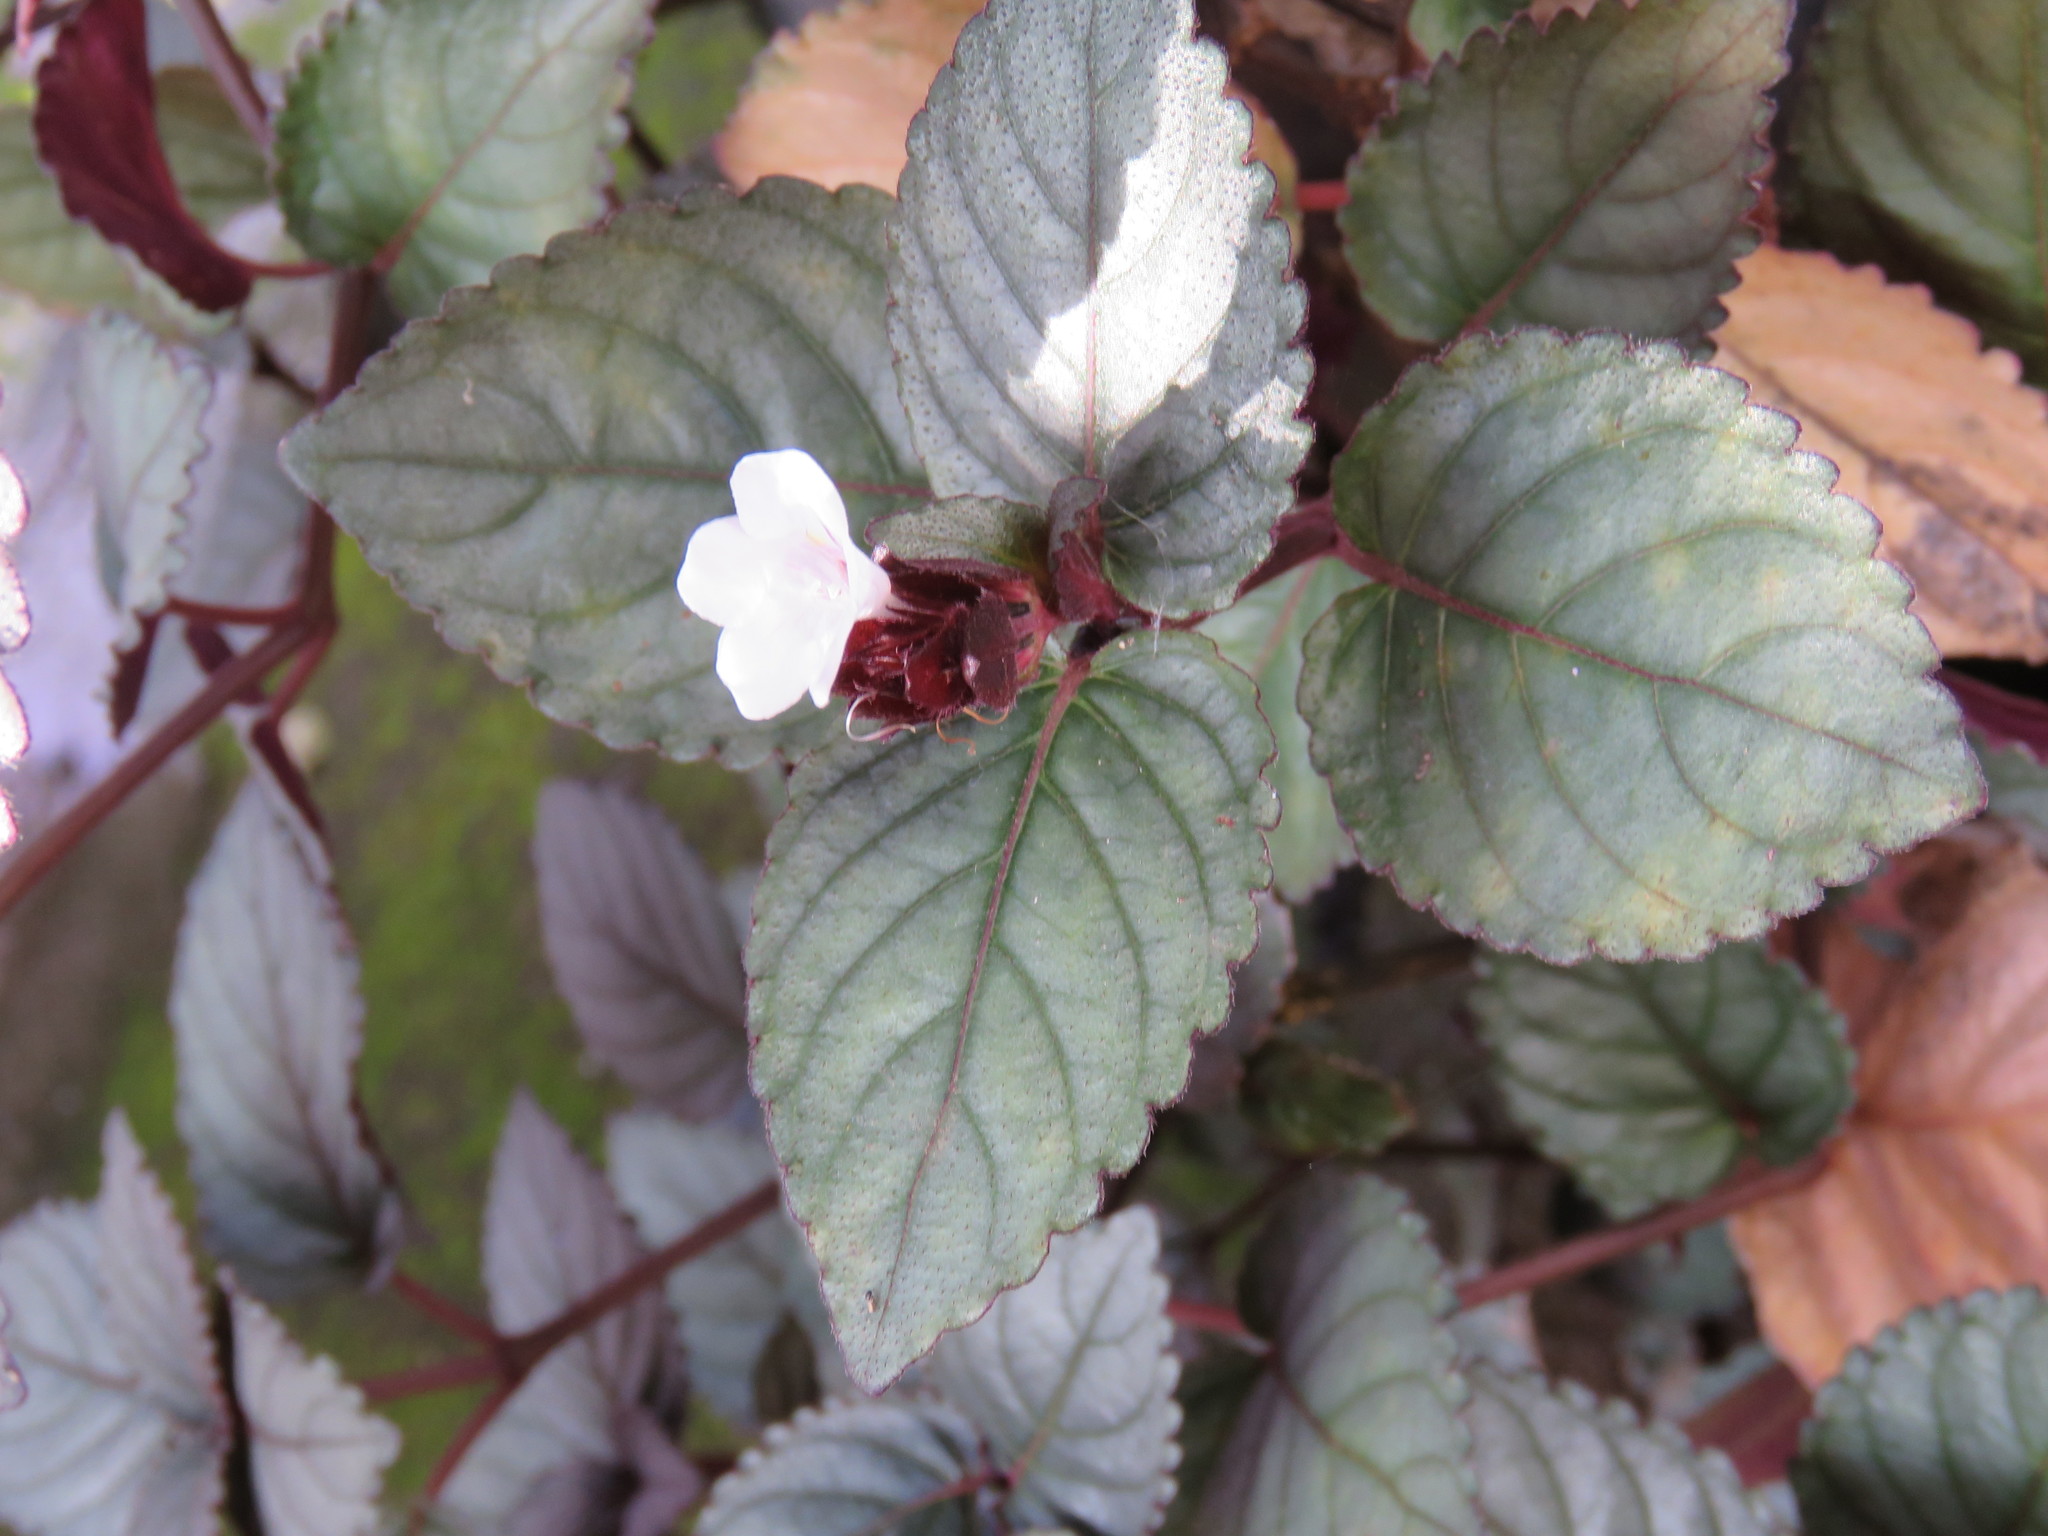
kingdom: Plantae
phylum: Tracheophyta
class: Magnoliopsida
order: Lamiales
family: Acanthaceae
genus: Strobilanthes
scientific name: Strobilanthes alternata
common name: Red ivy
